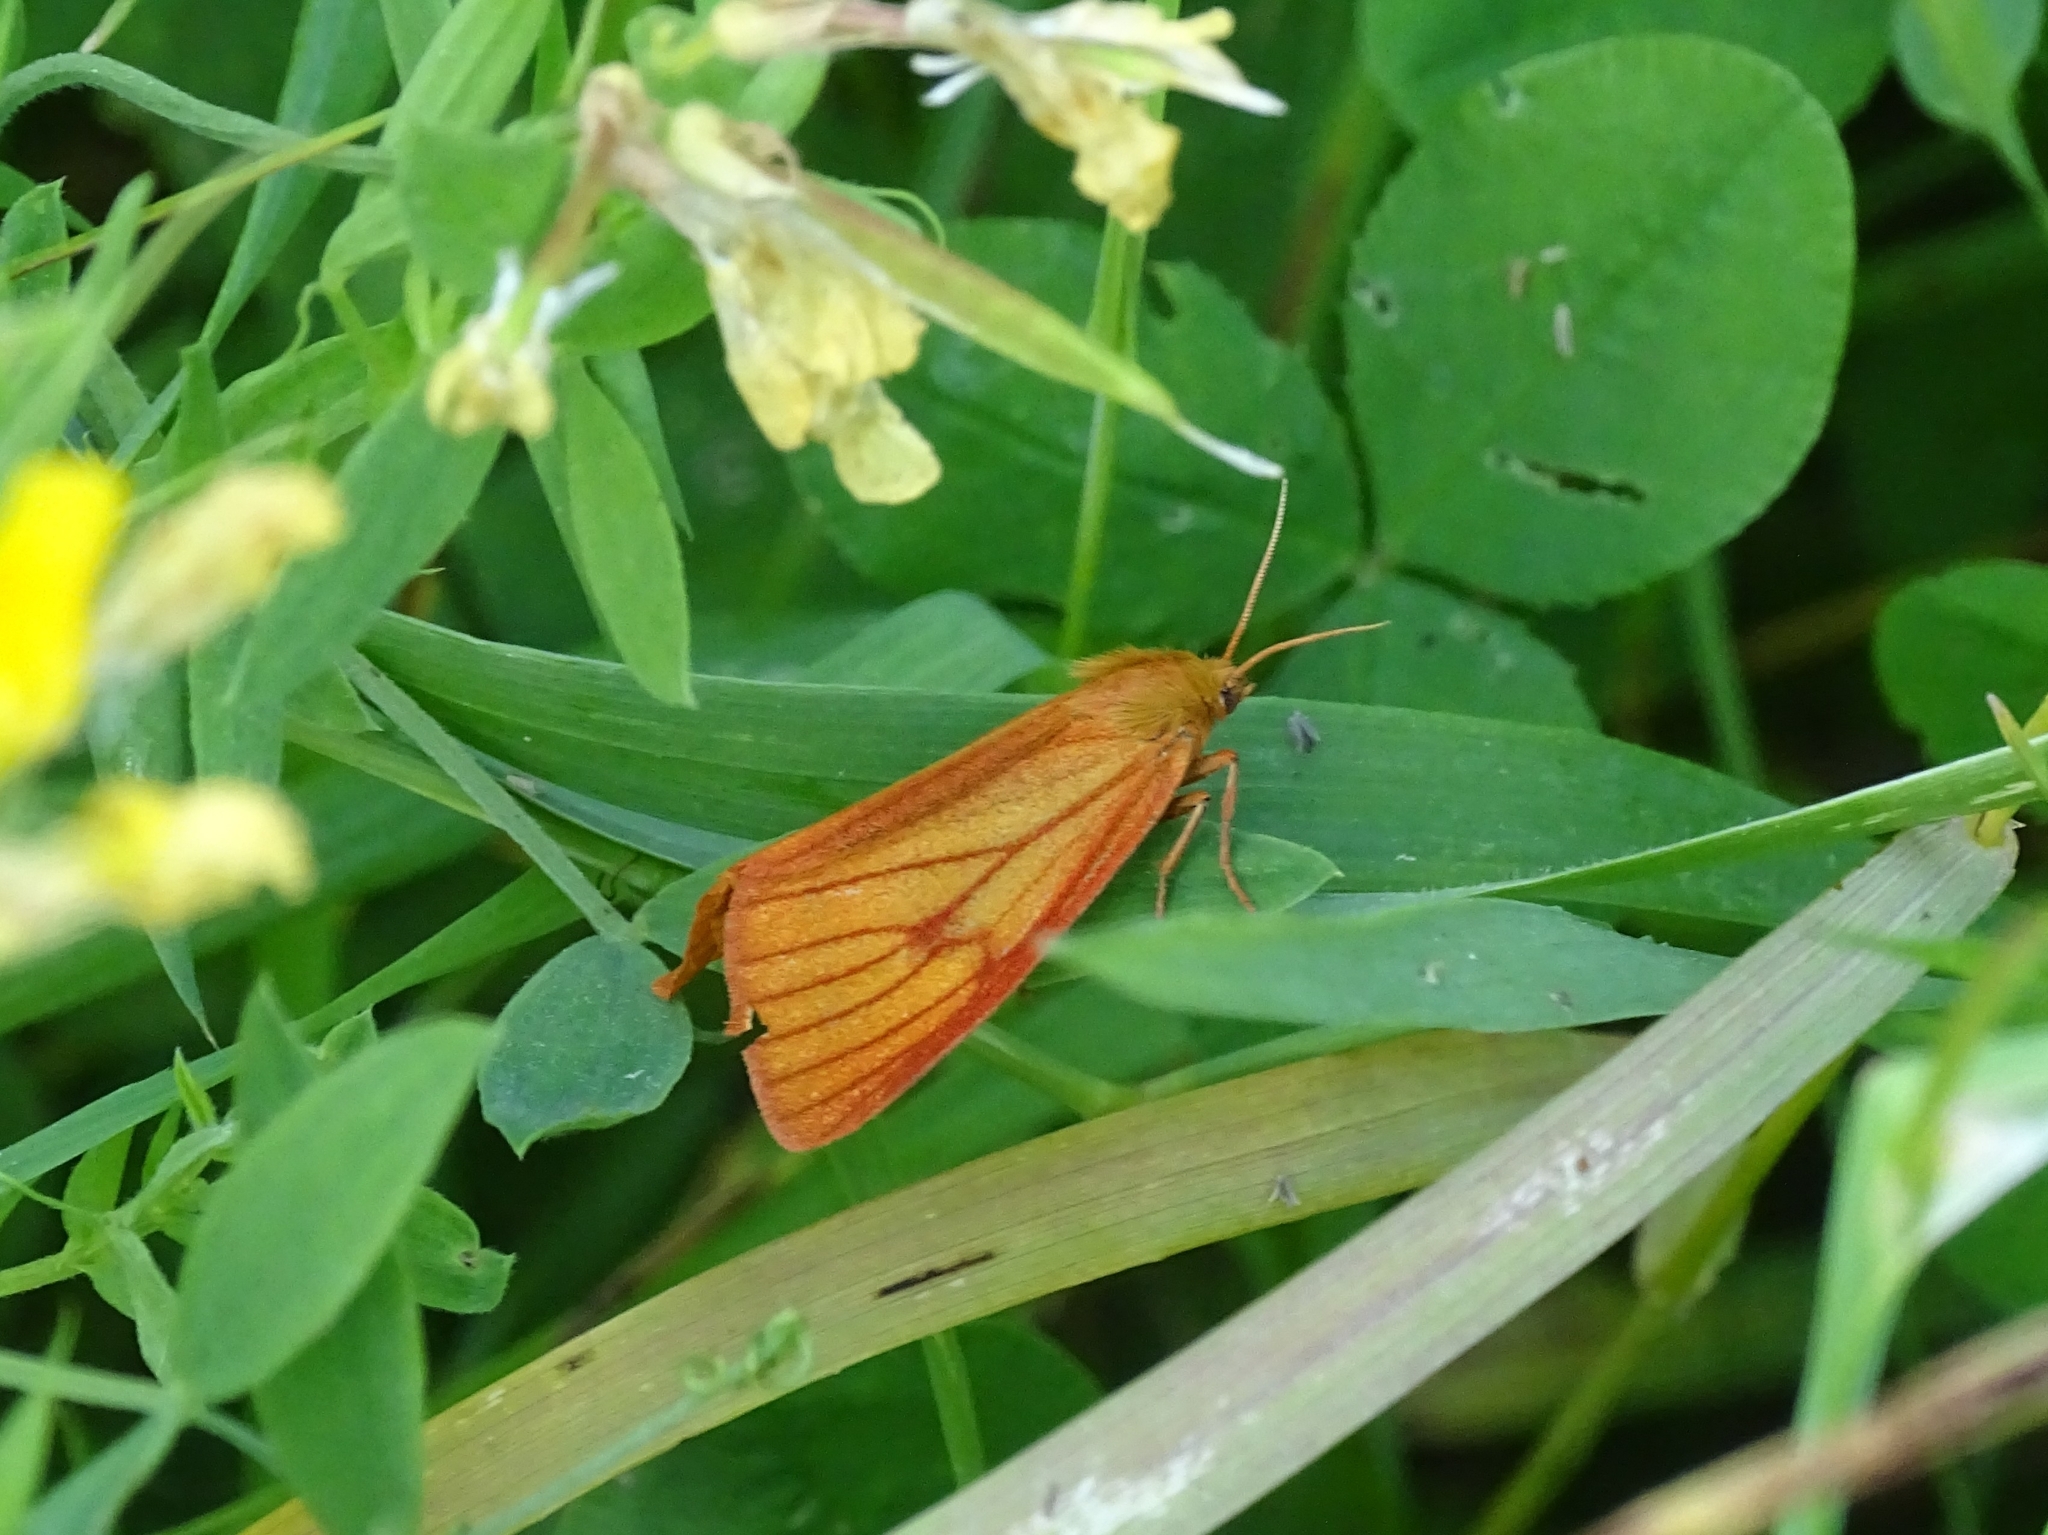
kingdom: Animalia
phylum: Arthropoda
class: Insecta
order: Lepidoptera
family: Erebidae
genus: Diacrisia
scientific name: Diacrisia sannio
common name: Clouded buff
